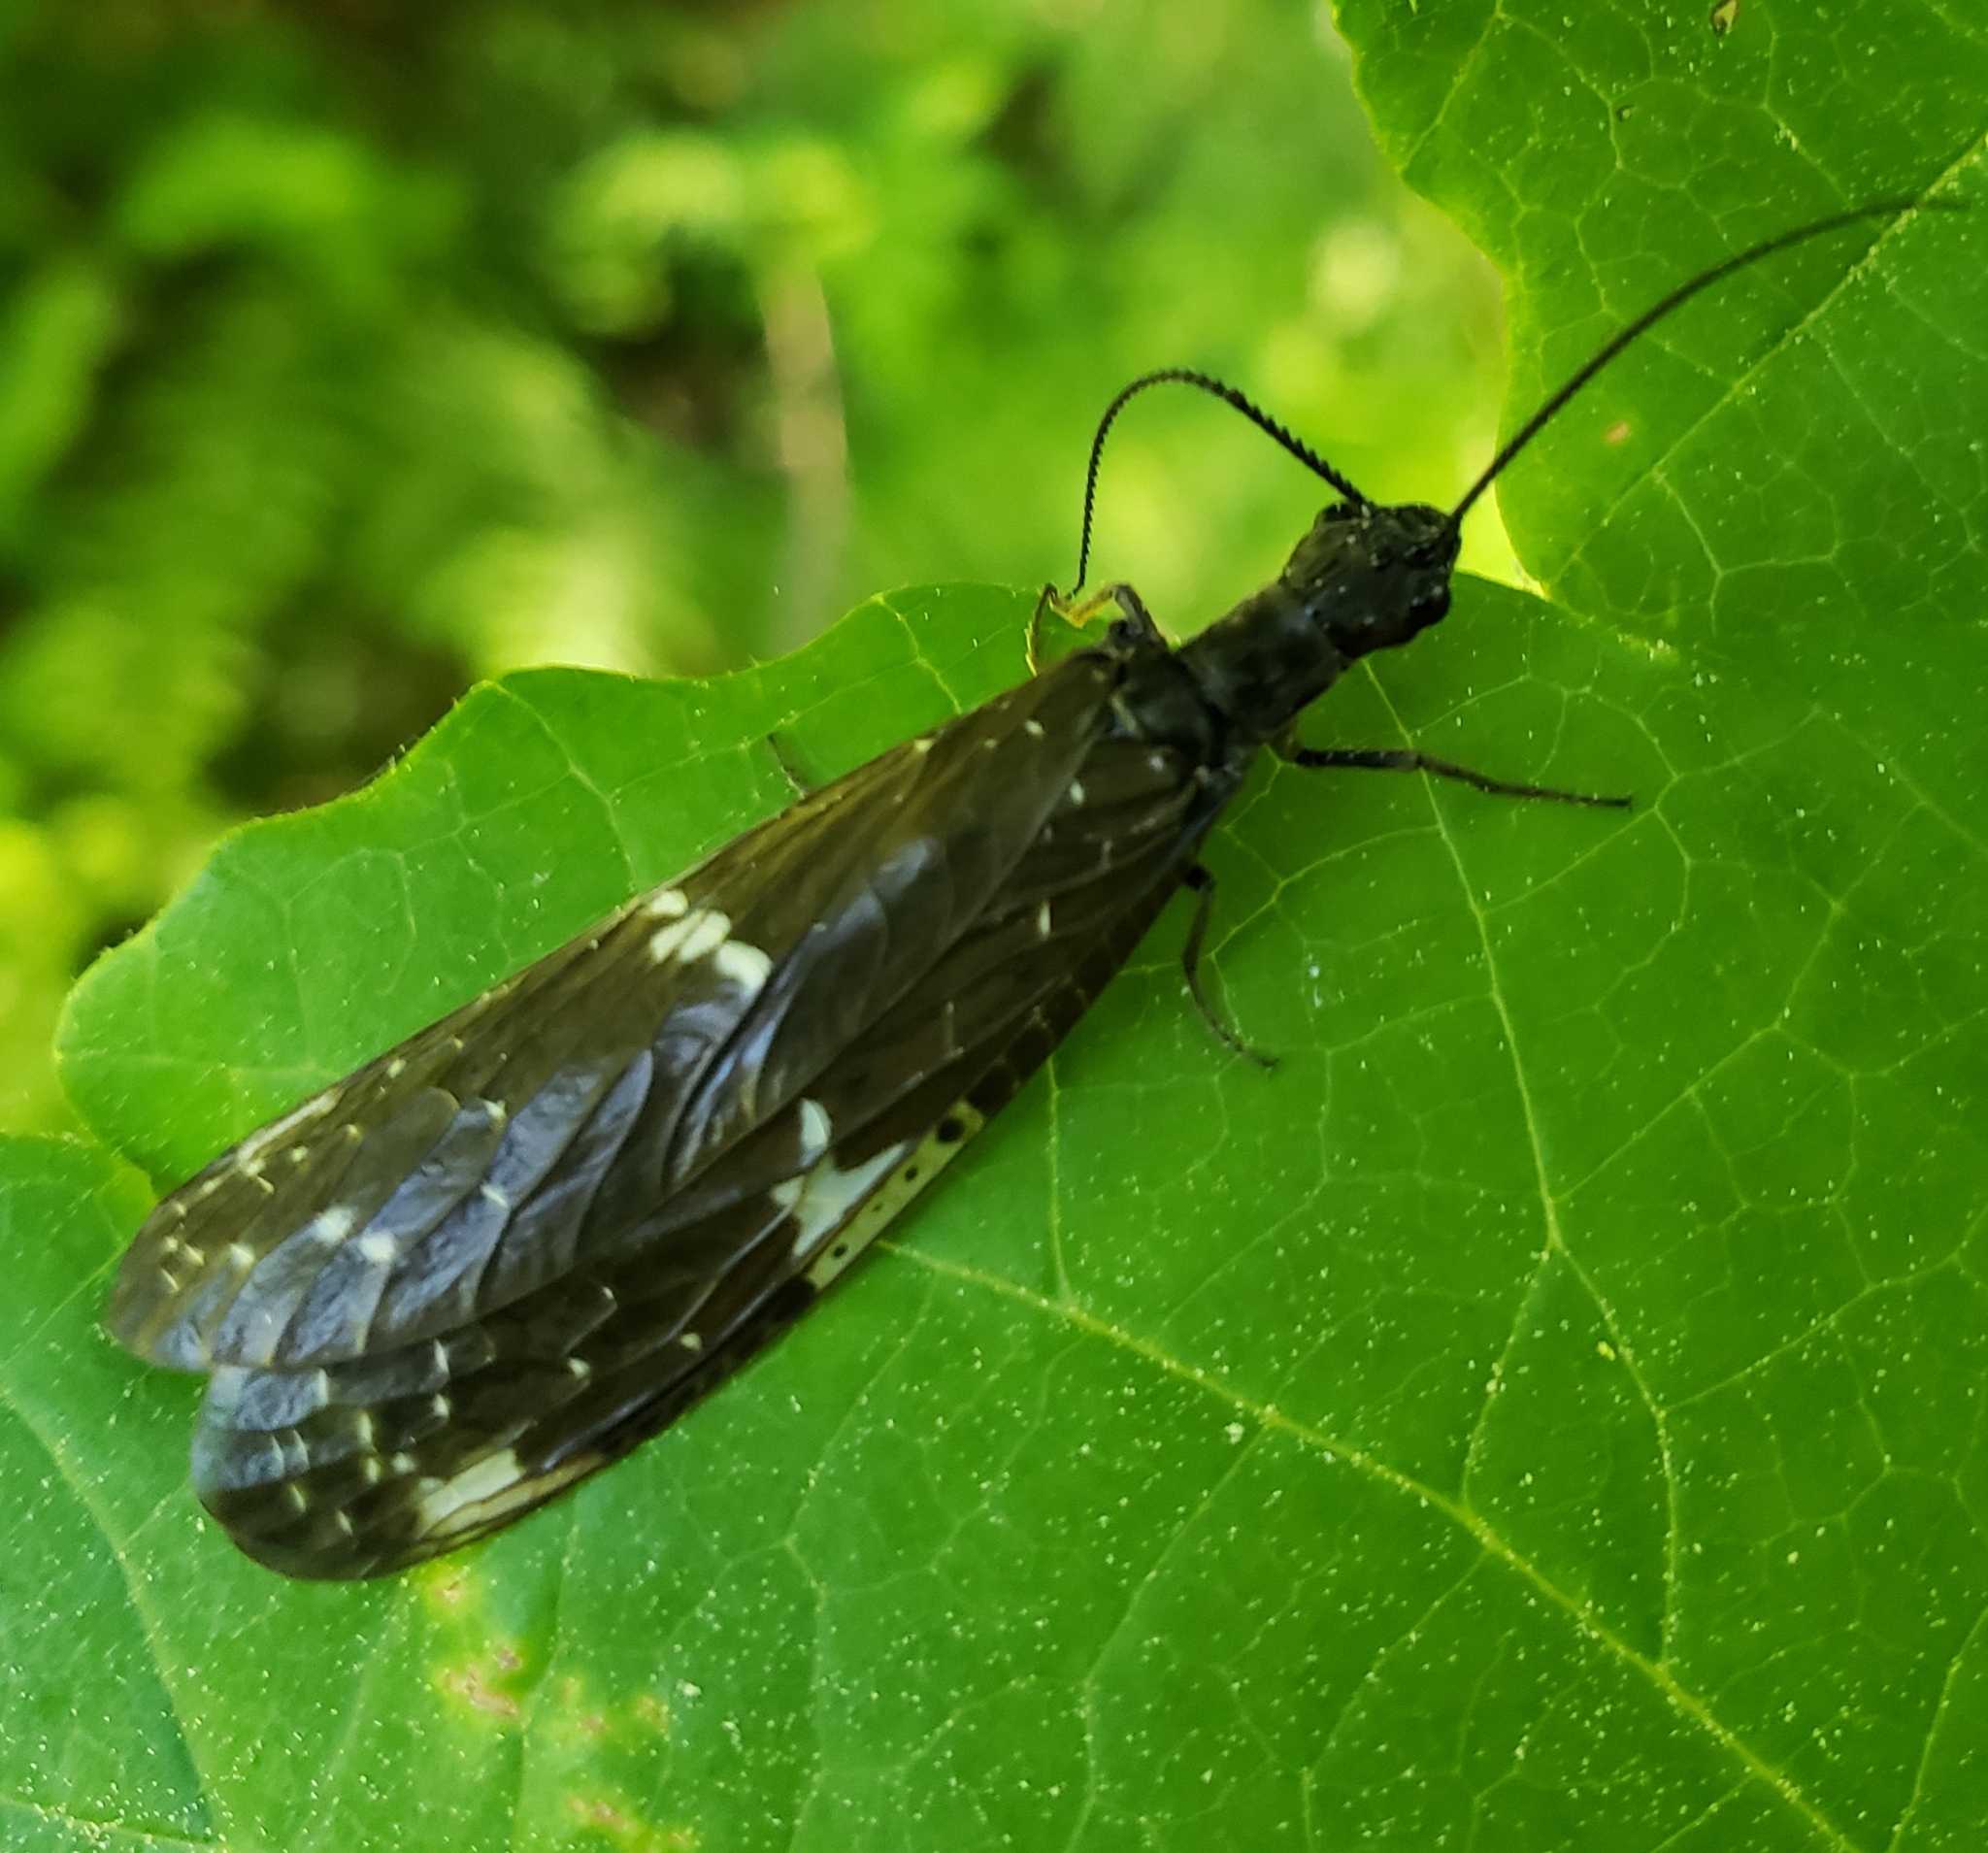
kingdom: Animalia
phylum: Arthropoda
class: Insecta
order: Megaloptera
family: Corydalidae
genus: Nigronia
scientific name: Nigronia serricornis
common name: Serrate dark fishfly
